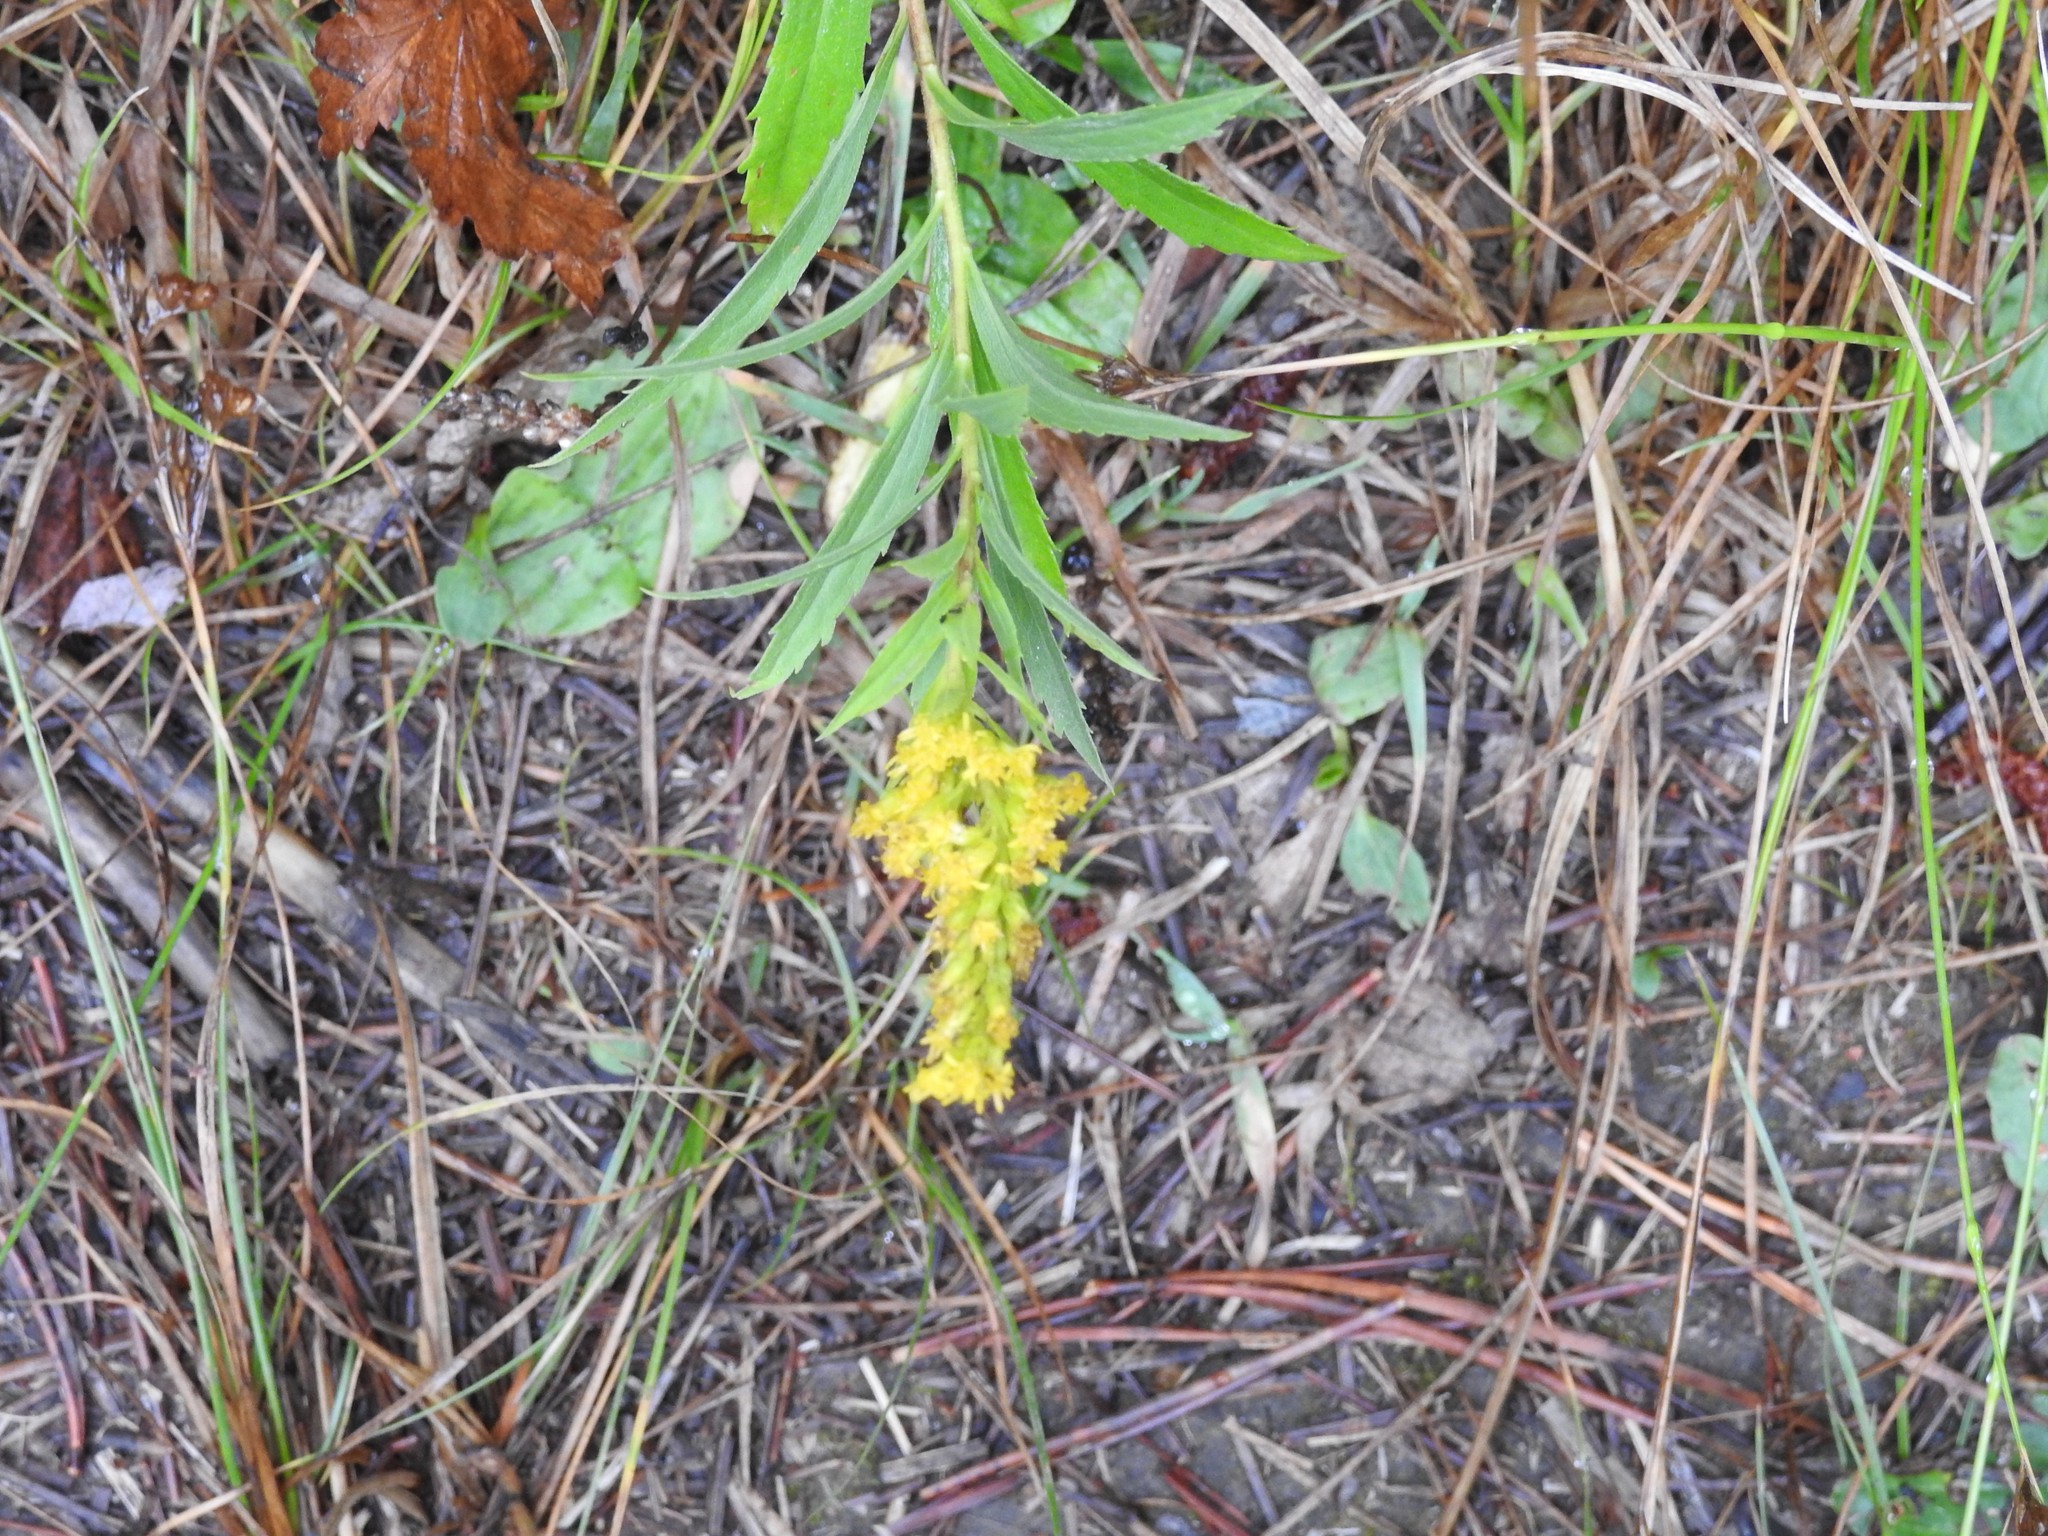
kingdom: Plantae
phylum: Tracheophyta
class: Magnoliopsida
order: Asterales
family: Asteraceae
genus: Solidago
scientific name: Solidago canadensis
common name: Canada goldenrod
